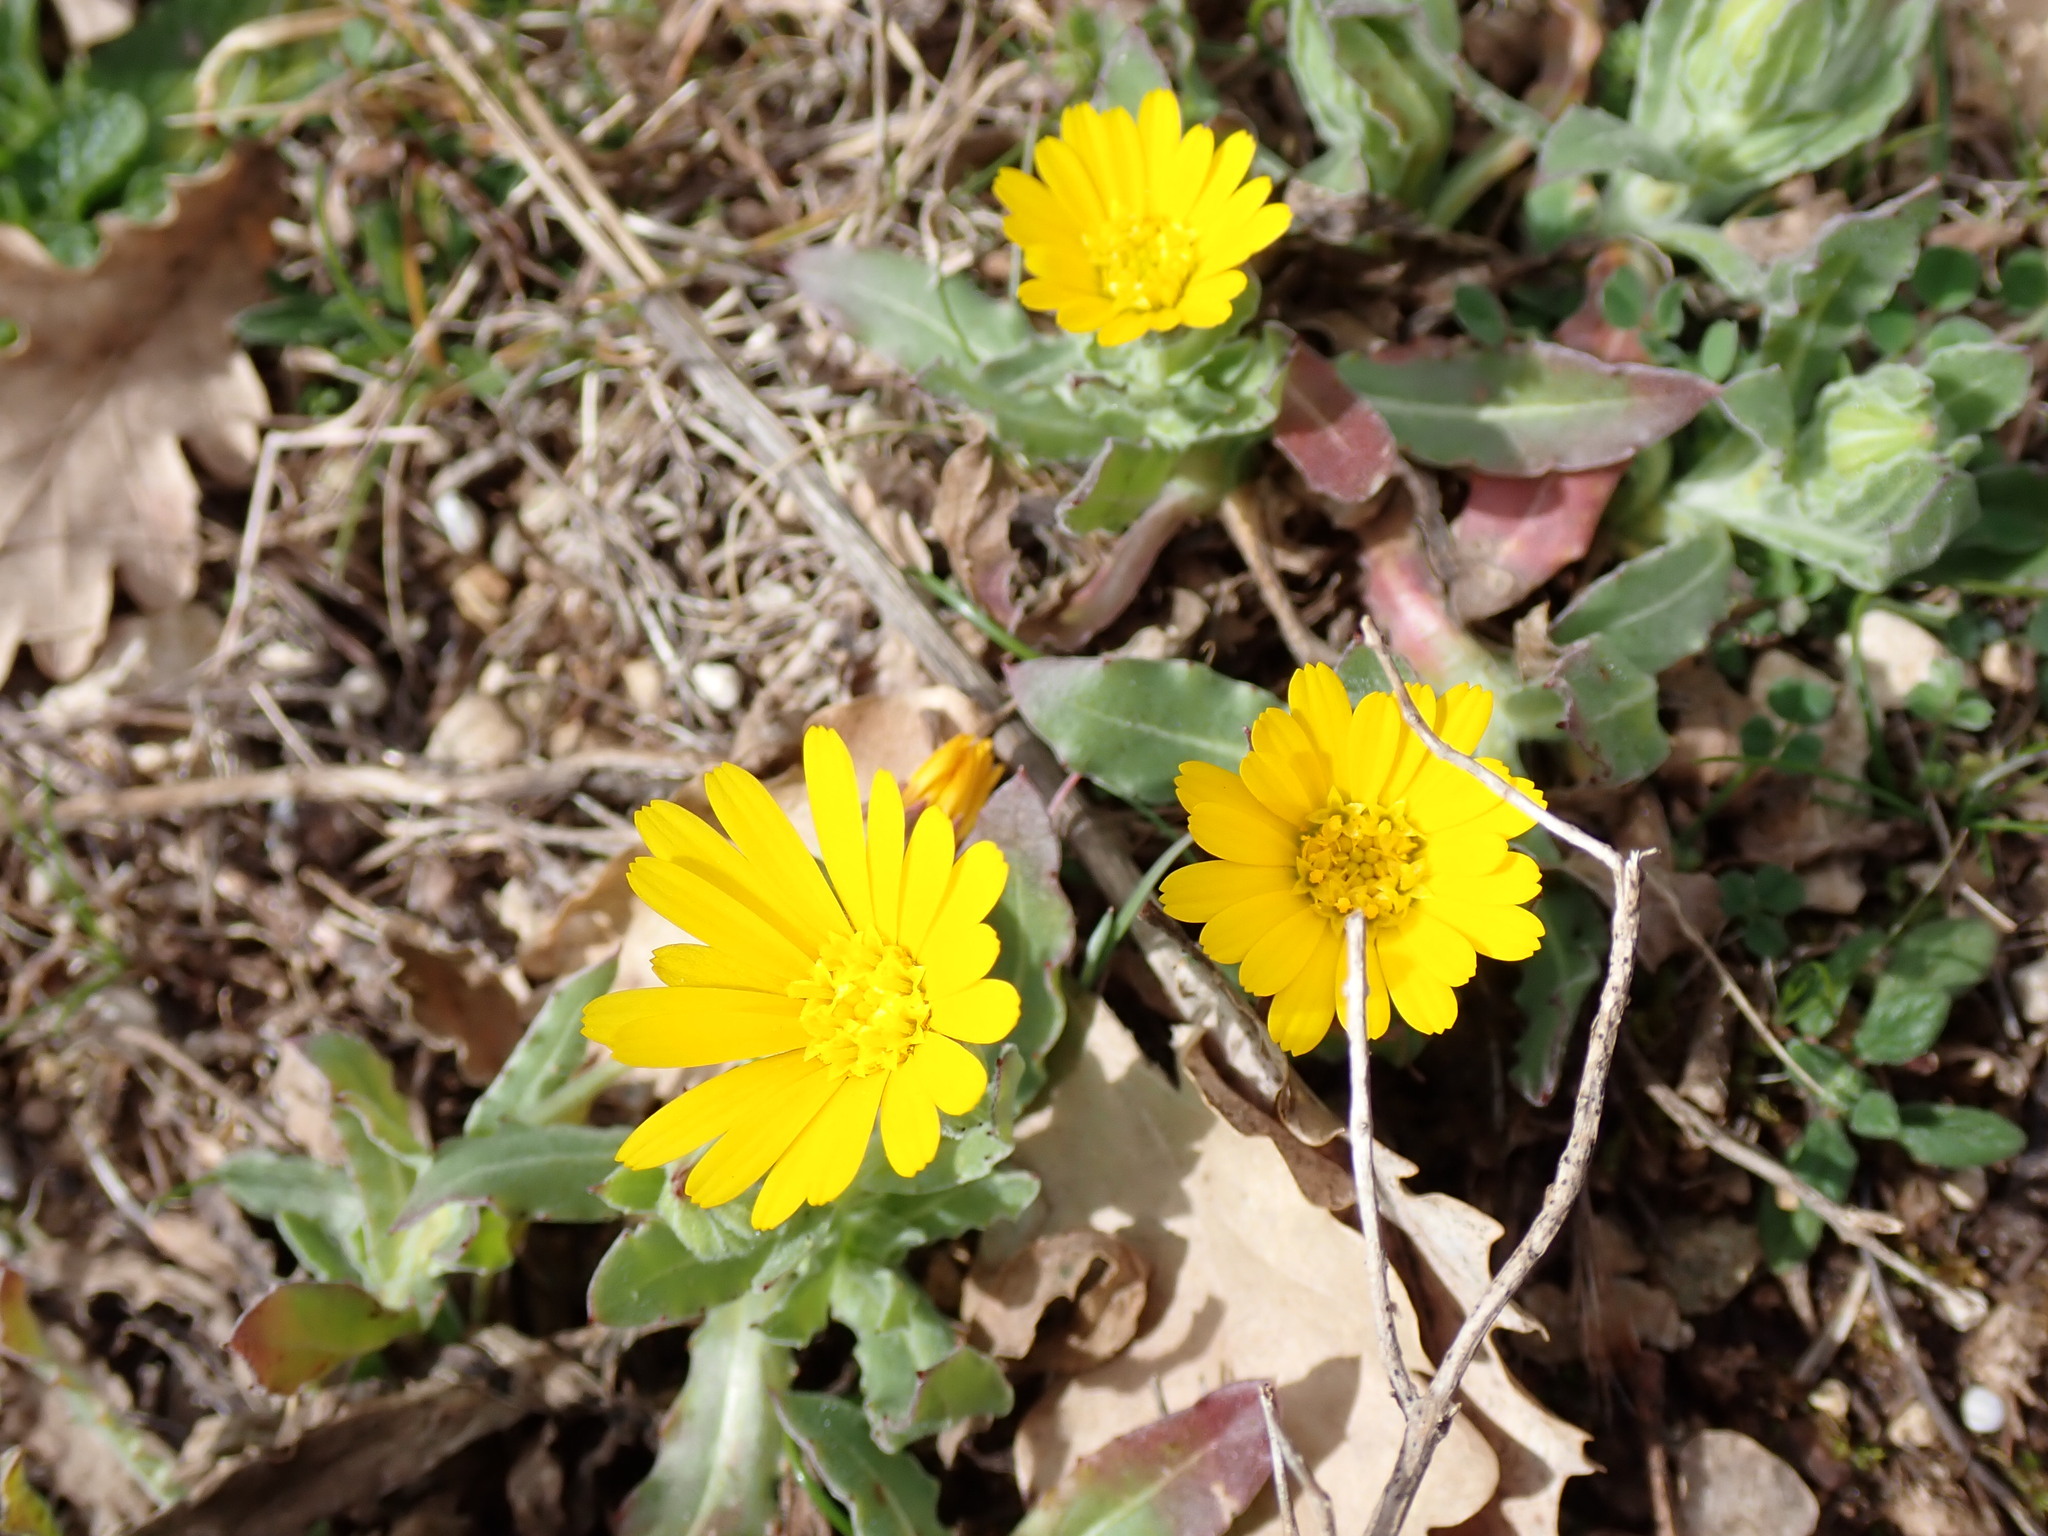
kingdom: Plantae
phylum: Tracheophyta
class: Magnoliopsida
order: Asterales
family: Asteraceae
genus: Calendula
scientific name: Calendula arvensis
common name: Field marigold
